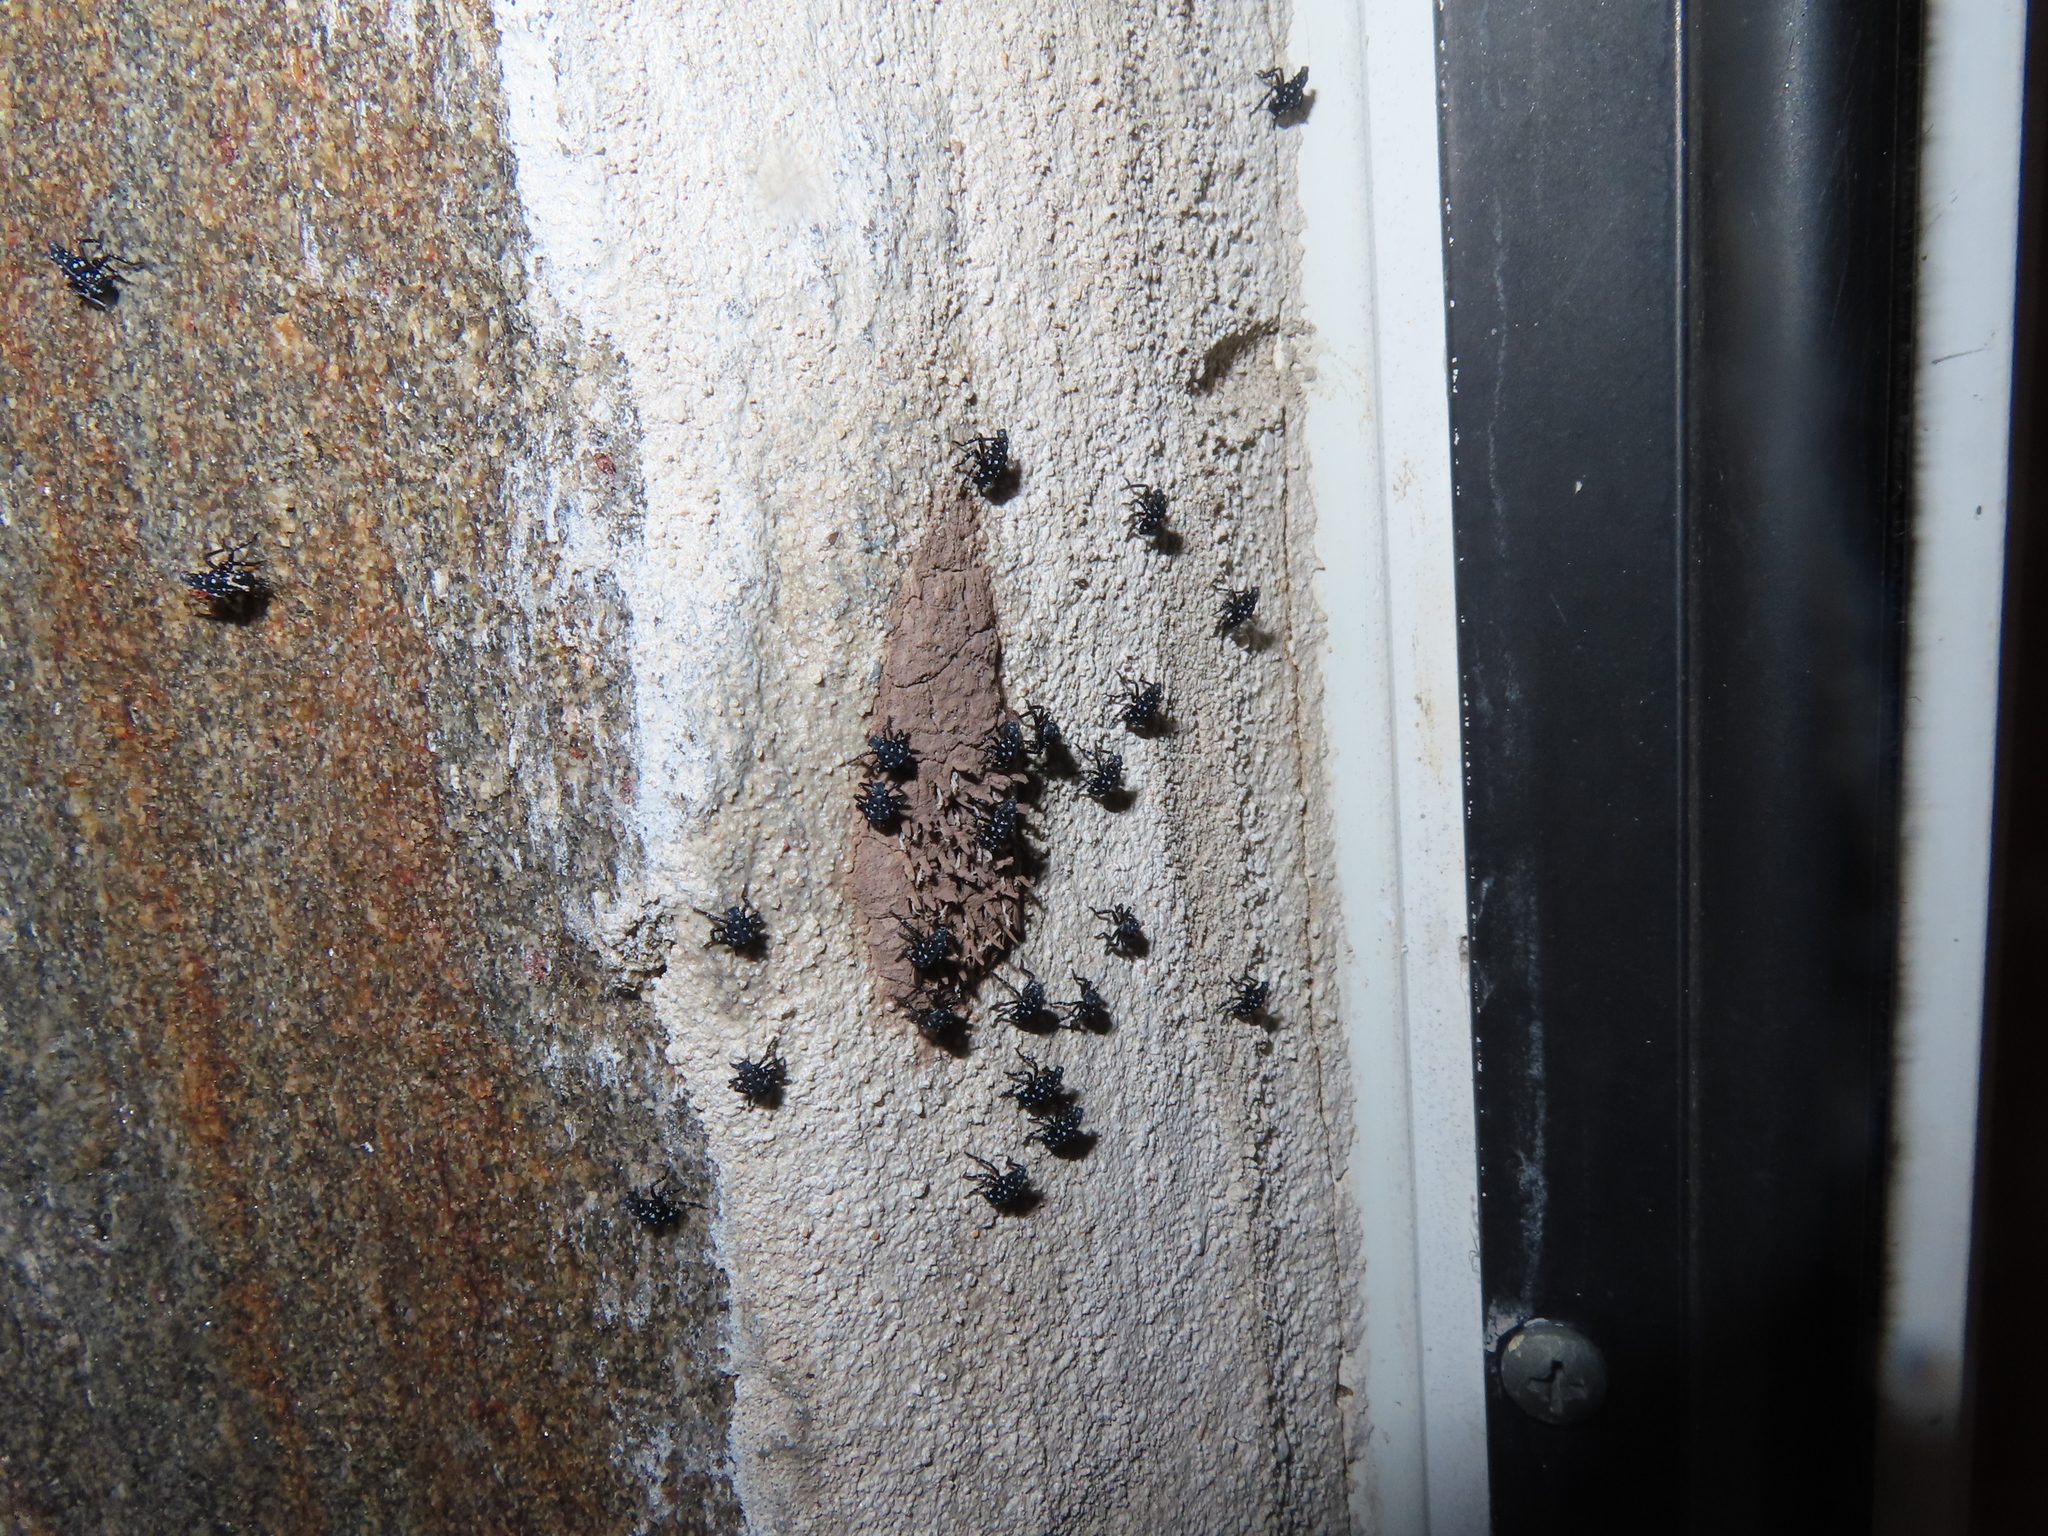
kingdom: Animalia
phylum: Arthropoda
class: Insecta
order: Hemiptera
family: Fulgoridae
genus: Lycorma
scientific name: Lycorma delicatula
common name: Spotted lanternfly
